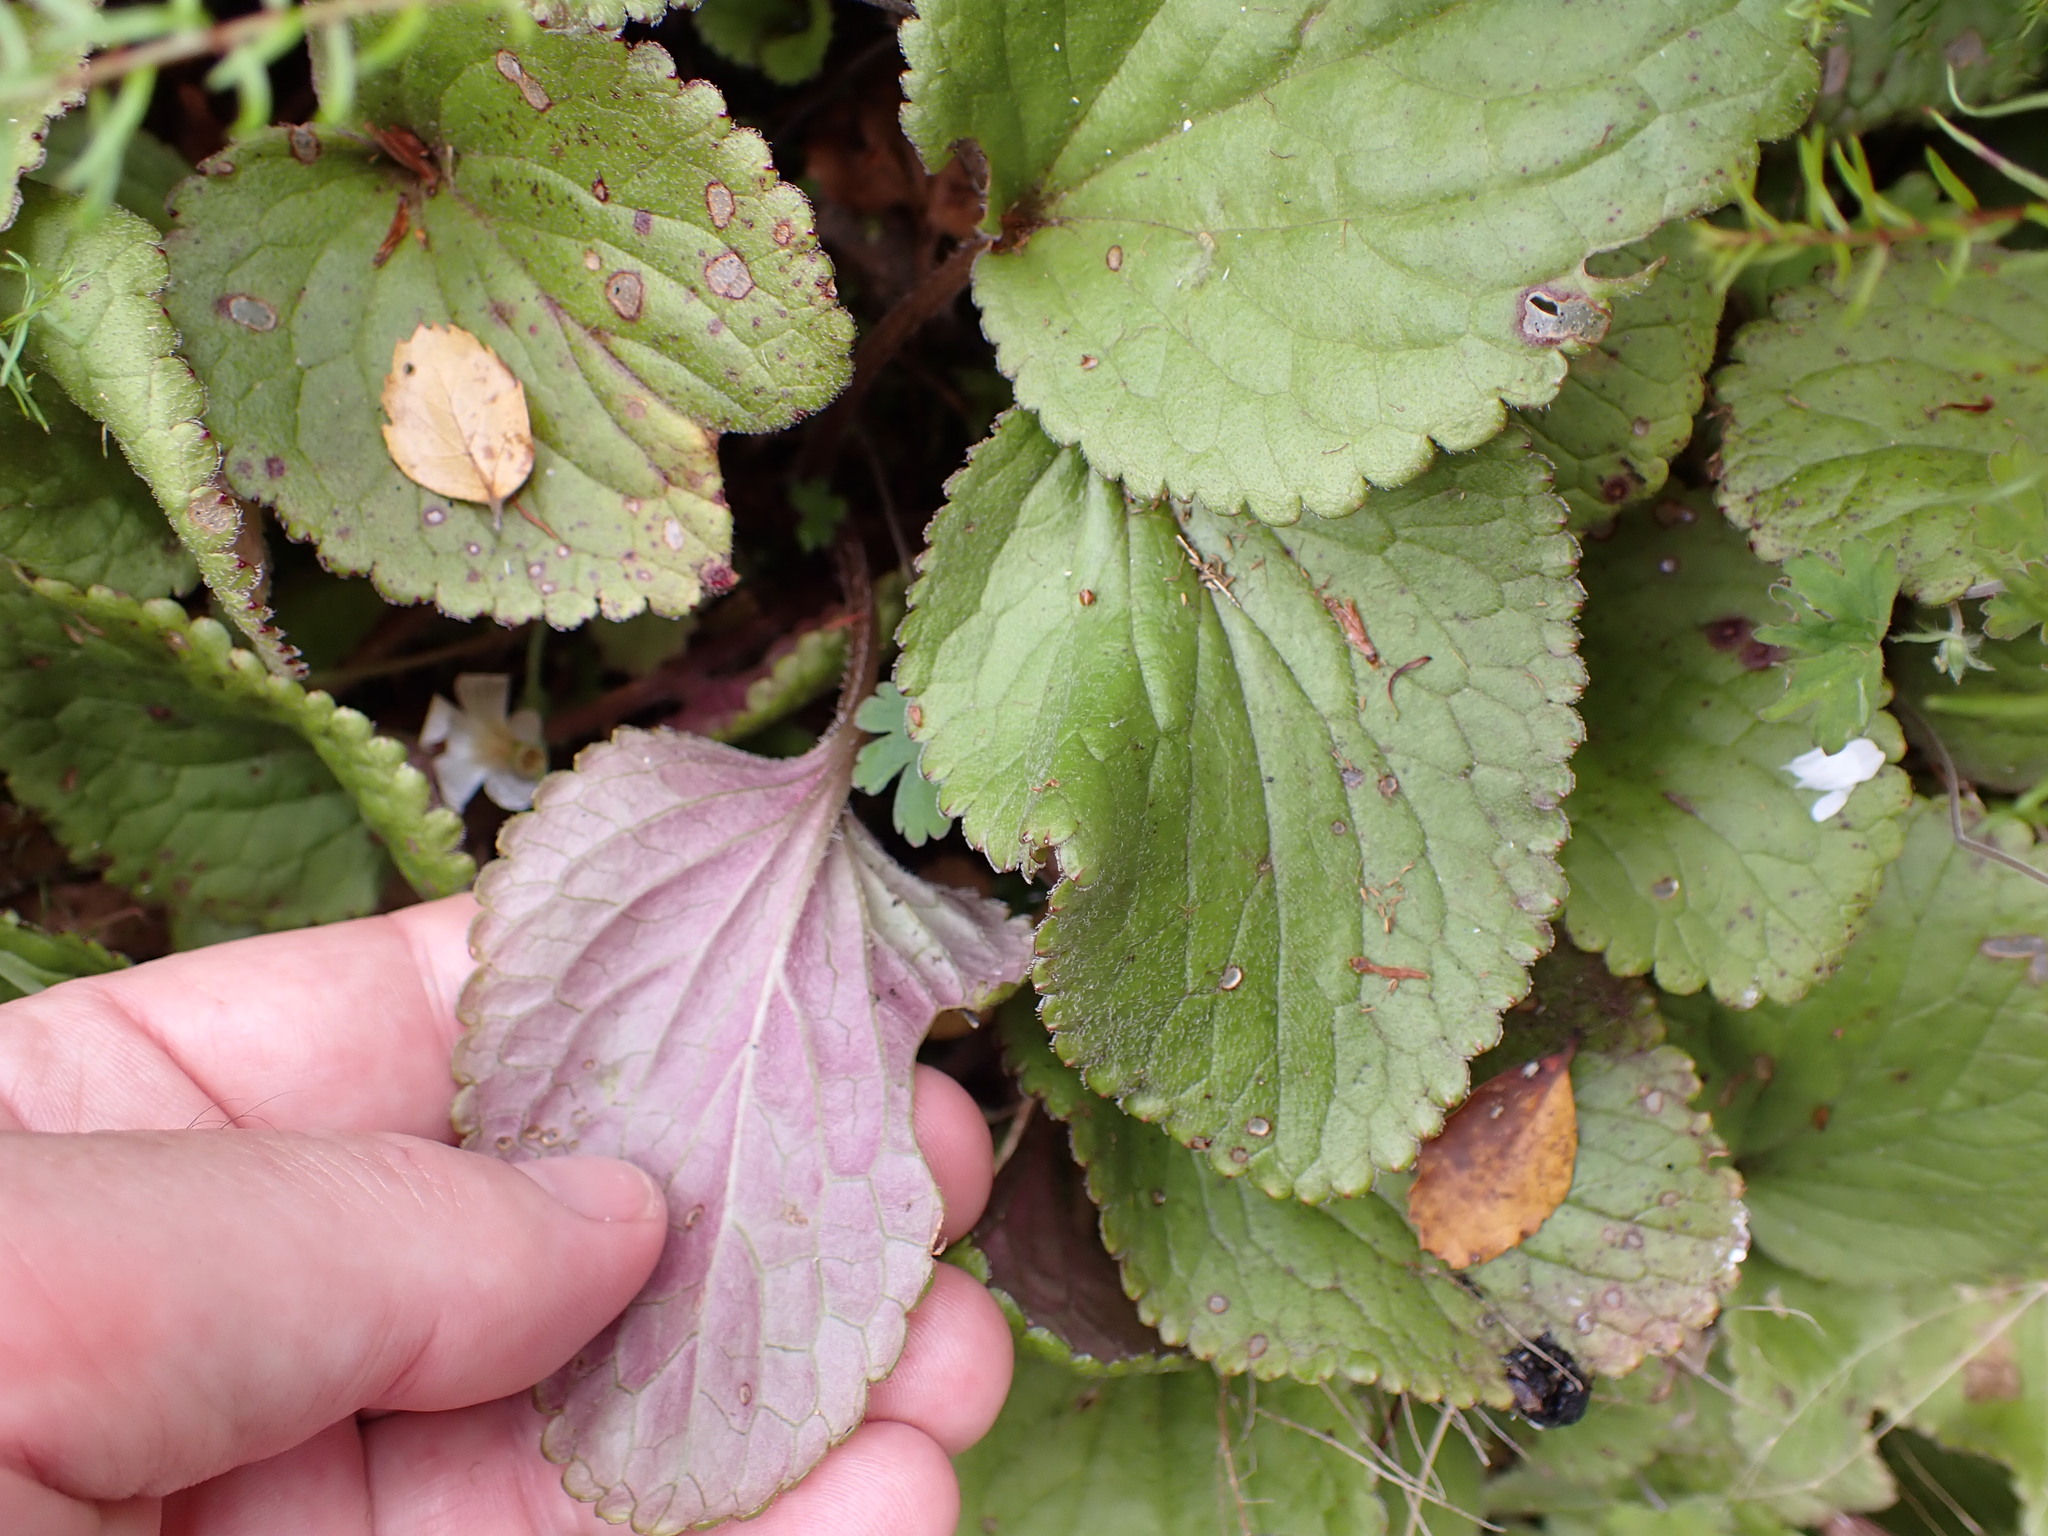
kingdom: Plantae
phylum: Tracheophyta
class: Magnoliopsida
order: Lamiales
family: Plantaginaceae
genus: Ourisia
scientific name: Ourisia macrophylla
